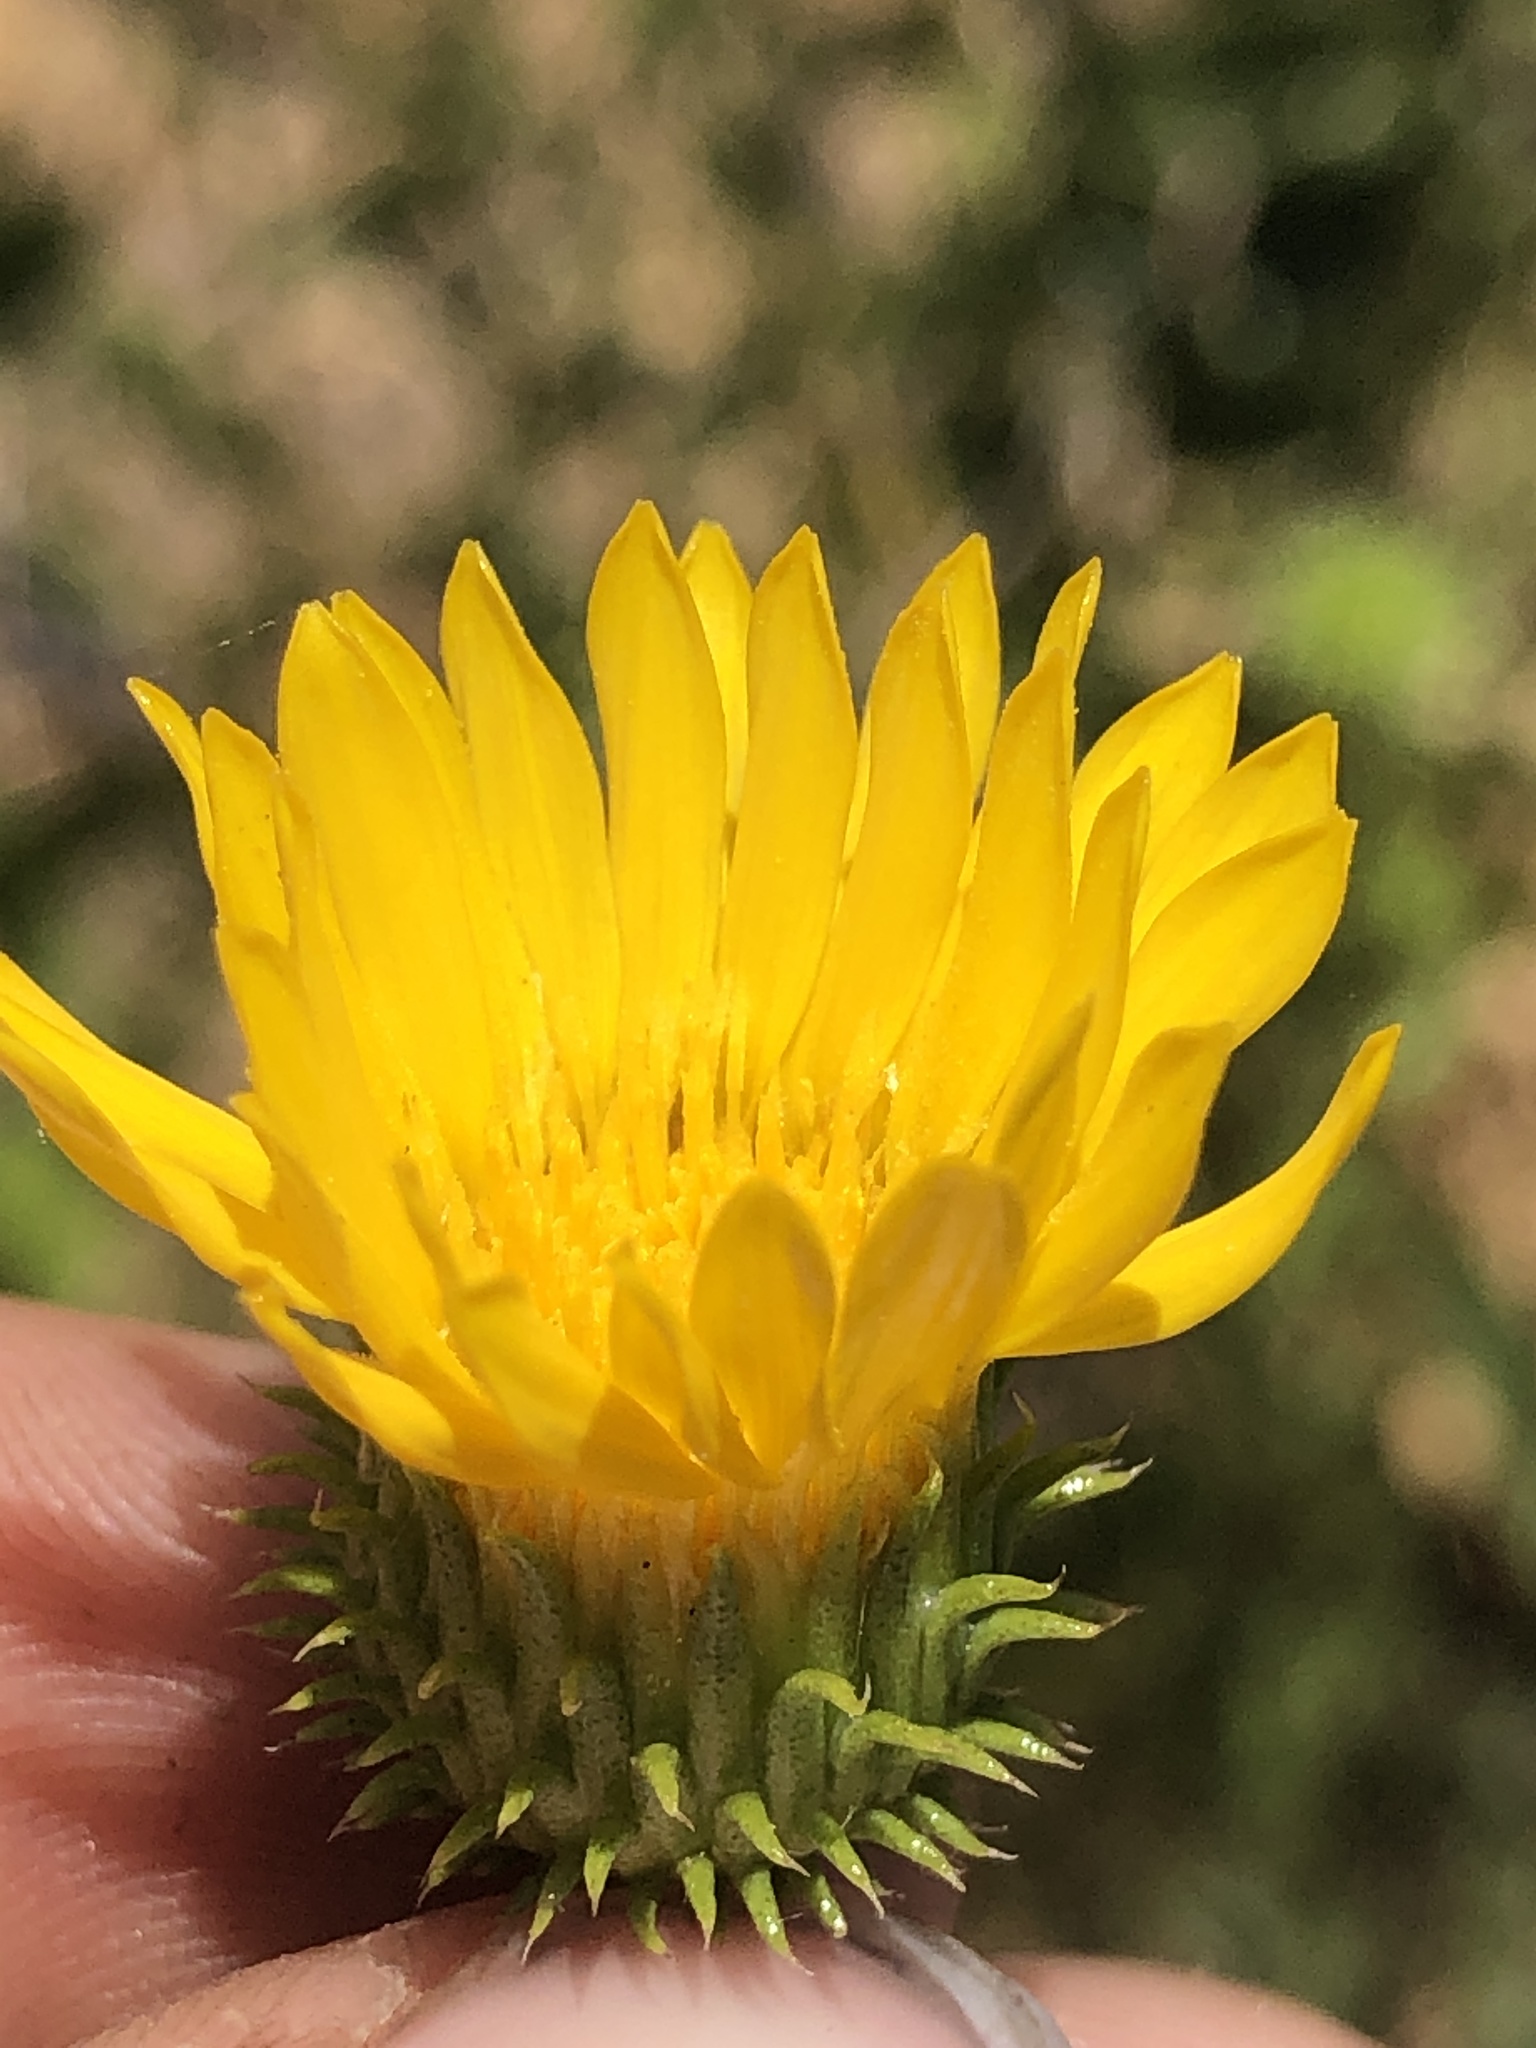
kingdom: Plantae
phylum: Tracheophyta
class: Magnoliopsida
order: Asterales
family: Asteraceae
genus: Grindelia
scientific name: Grindelia hirsutula
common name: Hairy gumweed
